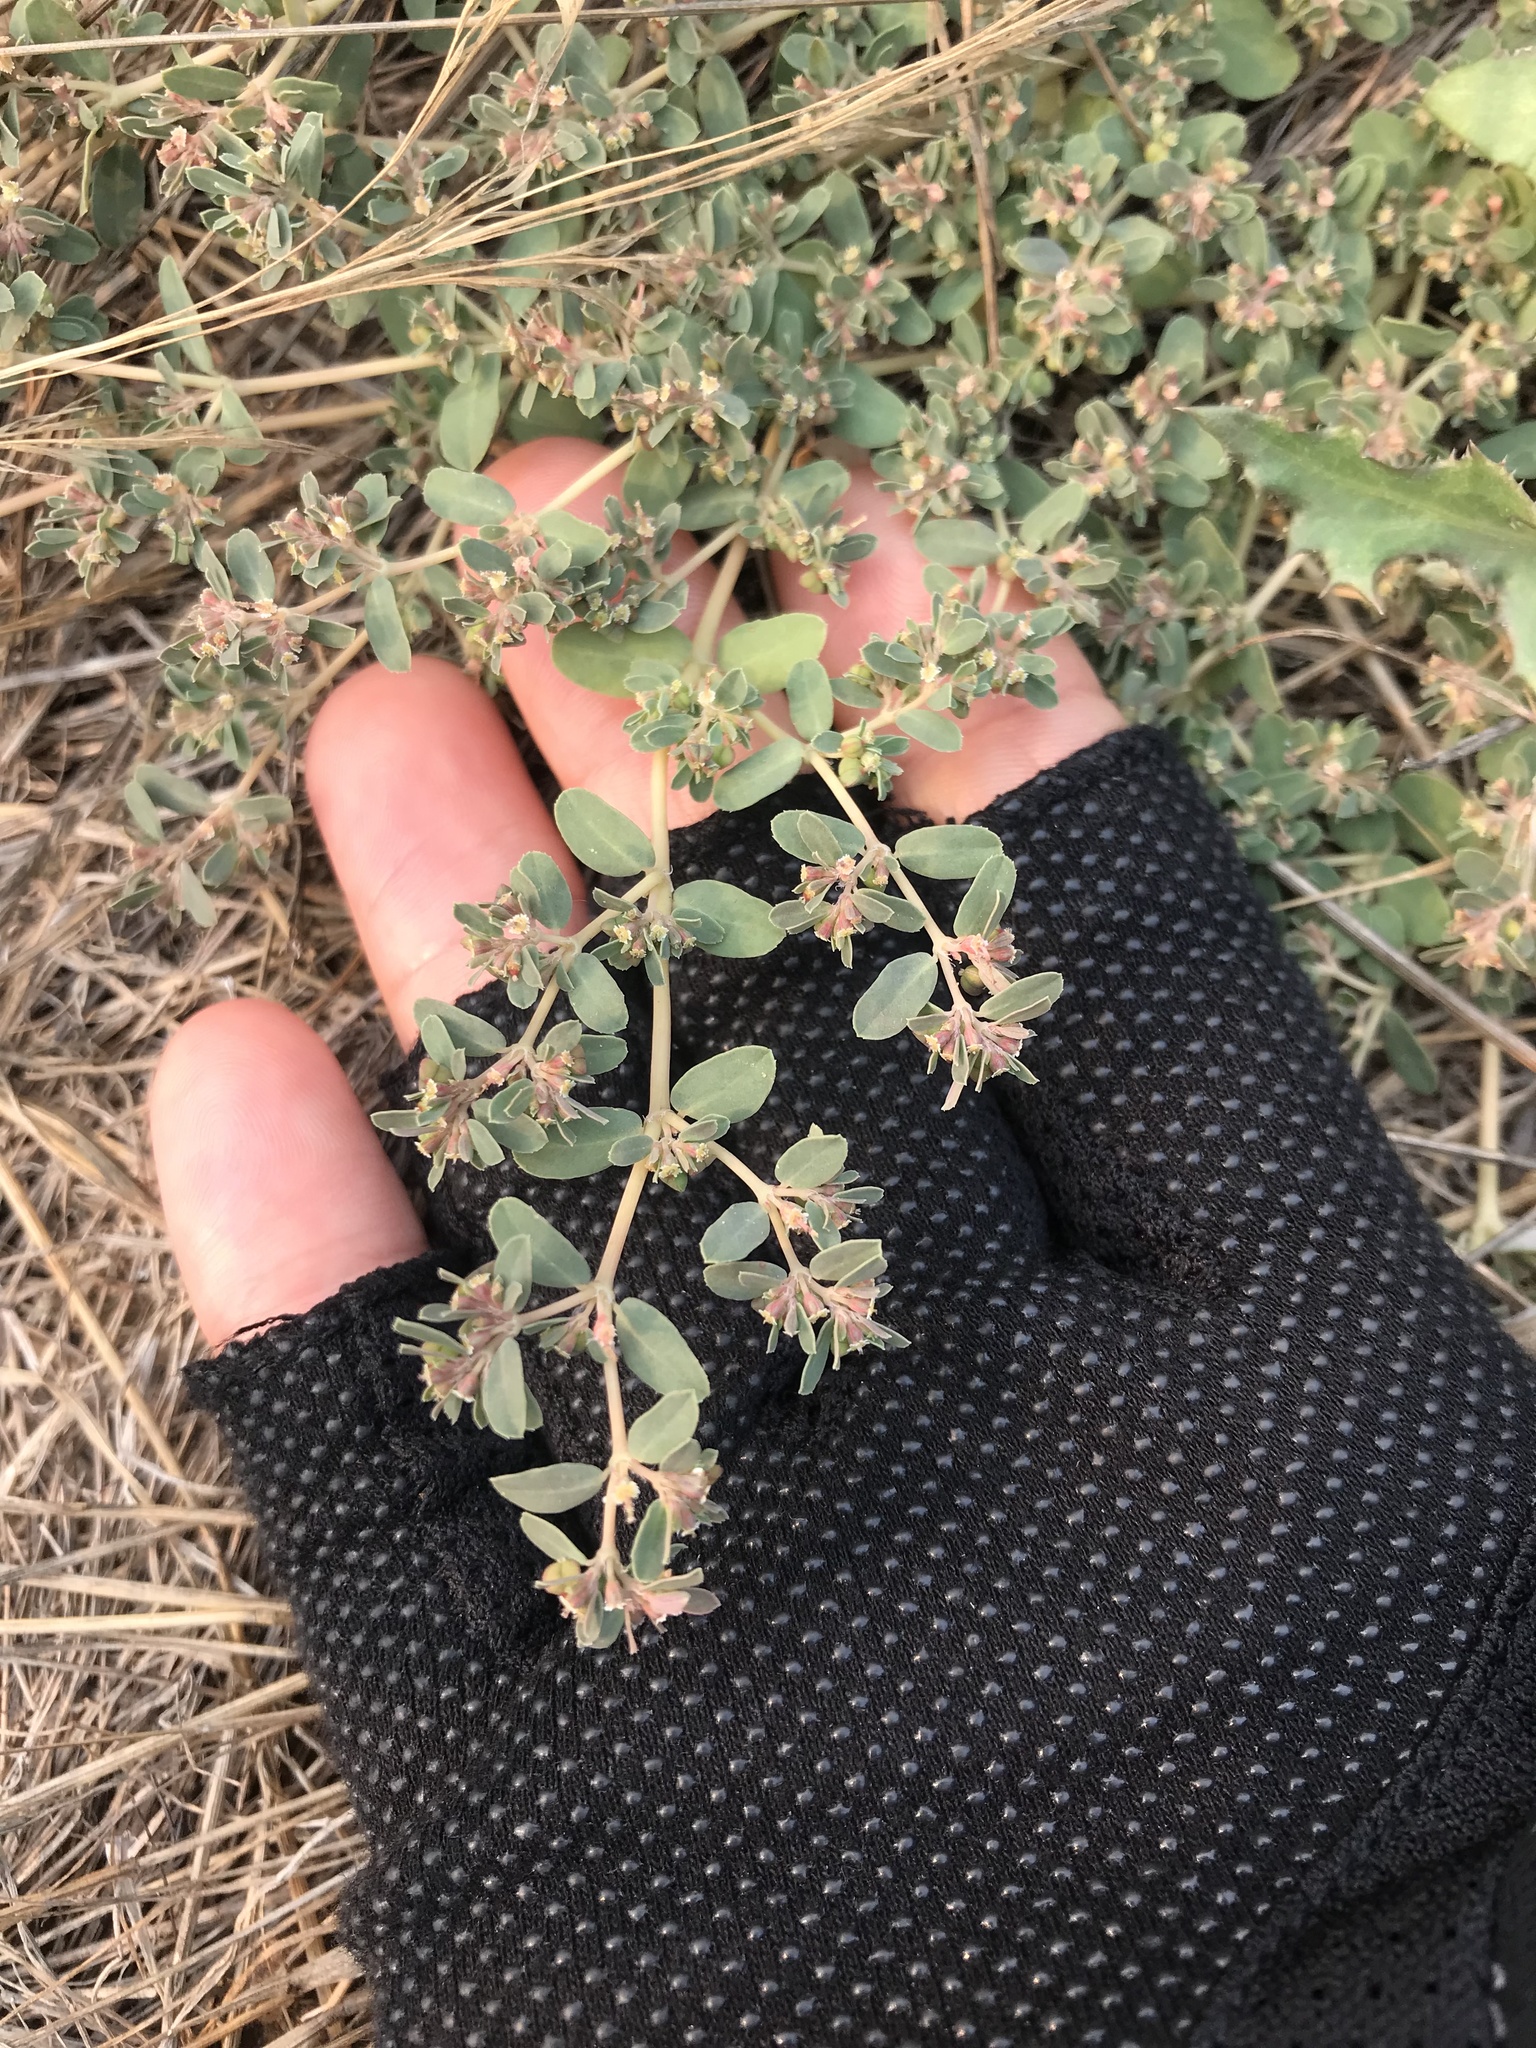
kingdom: Plantae
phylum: Tracheophyta
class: Magnoliopsida
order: Malpighiales
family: Euphorbiaceae
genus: Euphorbia
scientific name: Euphorbia serpillifolia
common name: Thyme-leaf spurge
